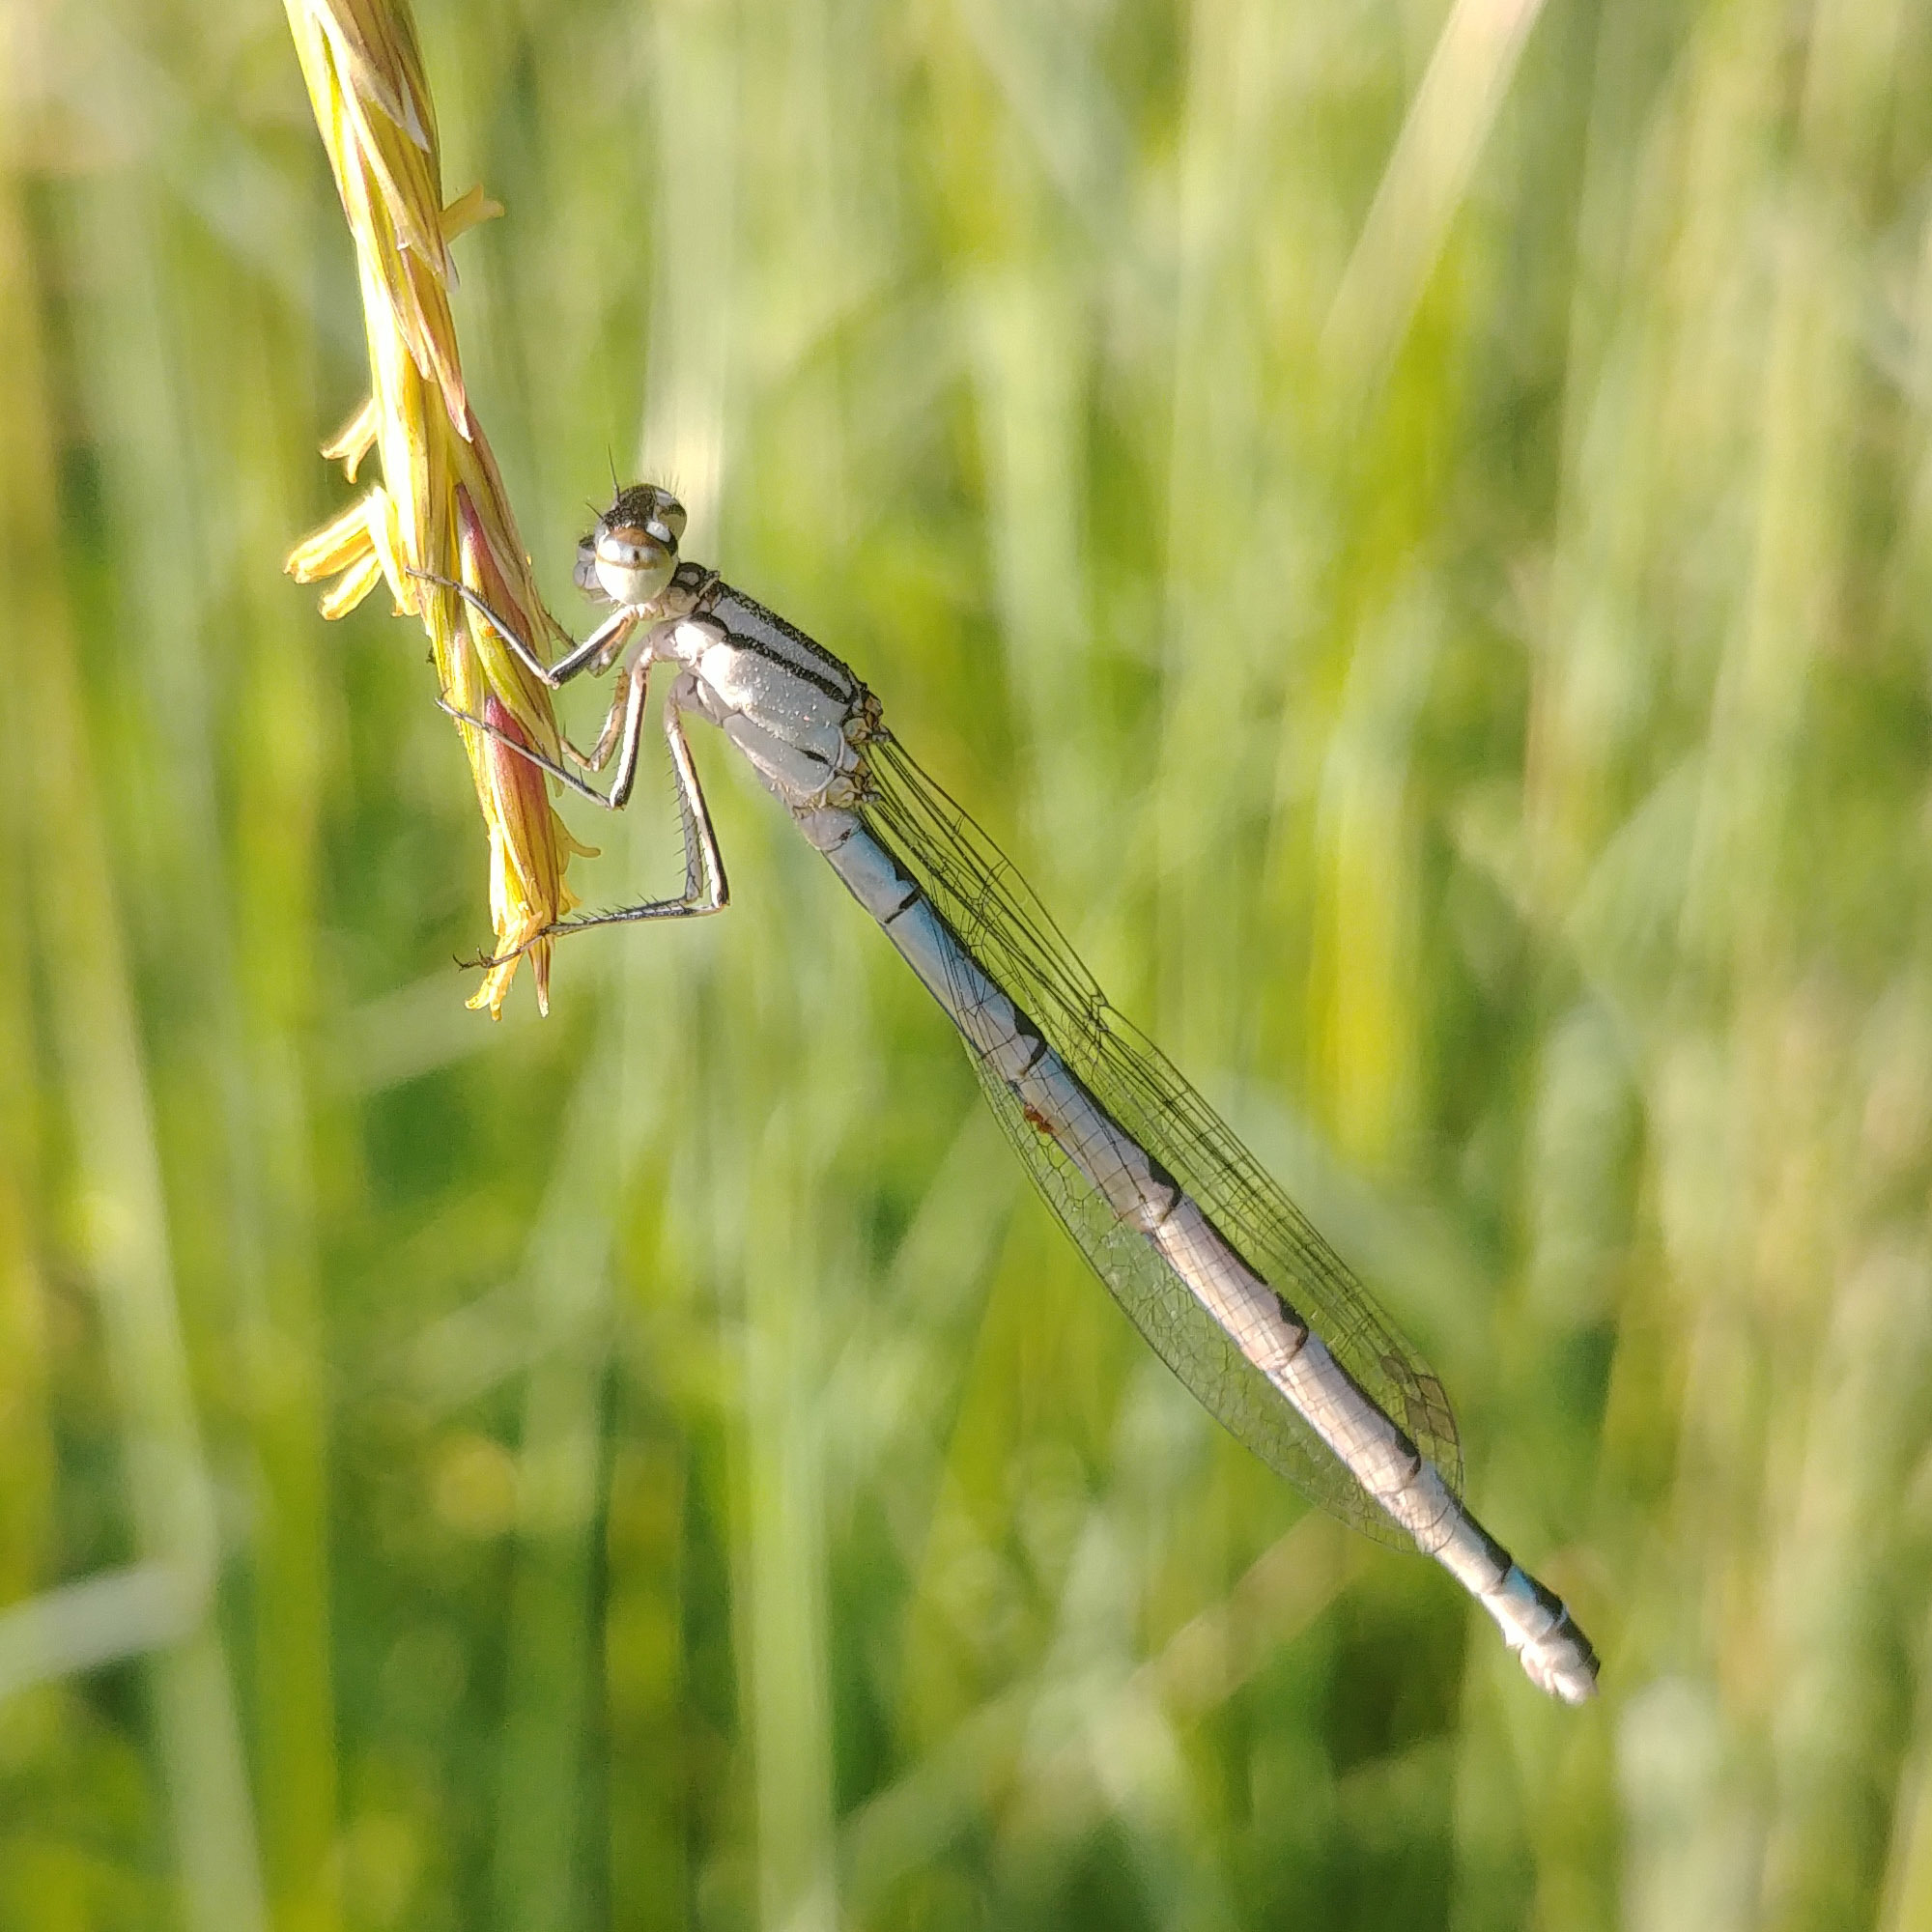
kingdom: Animalia
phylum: Arthropoda
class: Insecta
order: Odonata
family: Coenagrionidae
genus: Enallagma
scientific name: Enallagma cyathigerum
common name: Common blue damselfly
